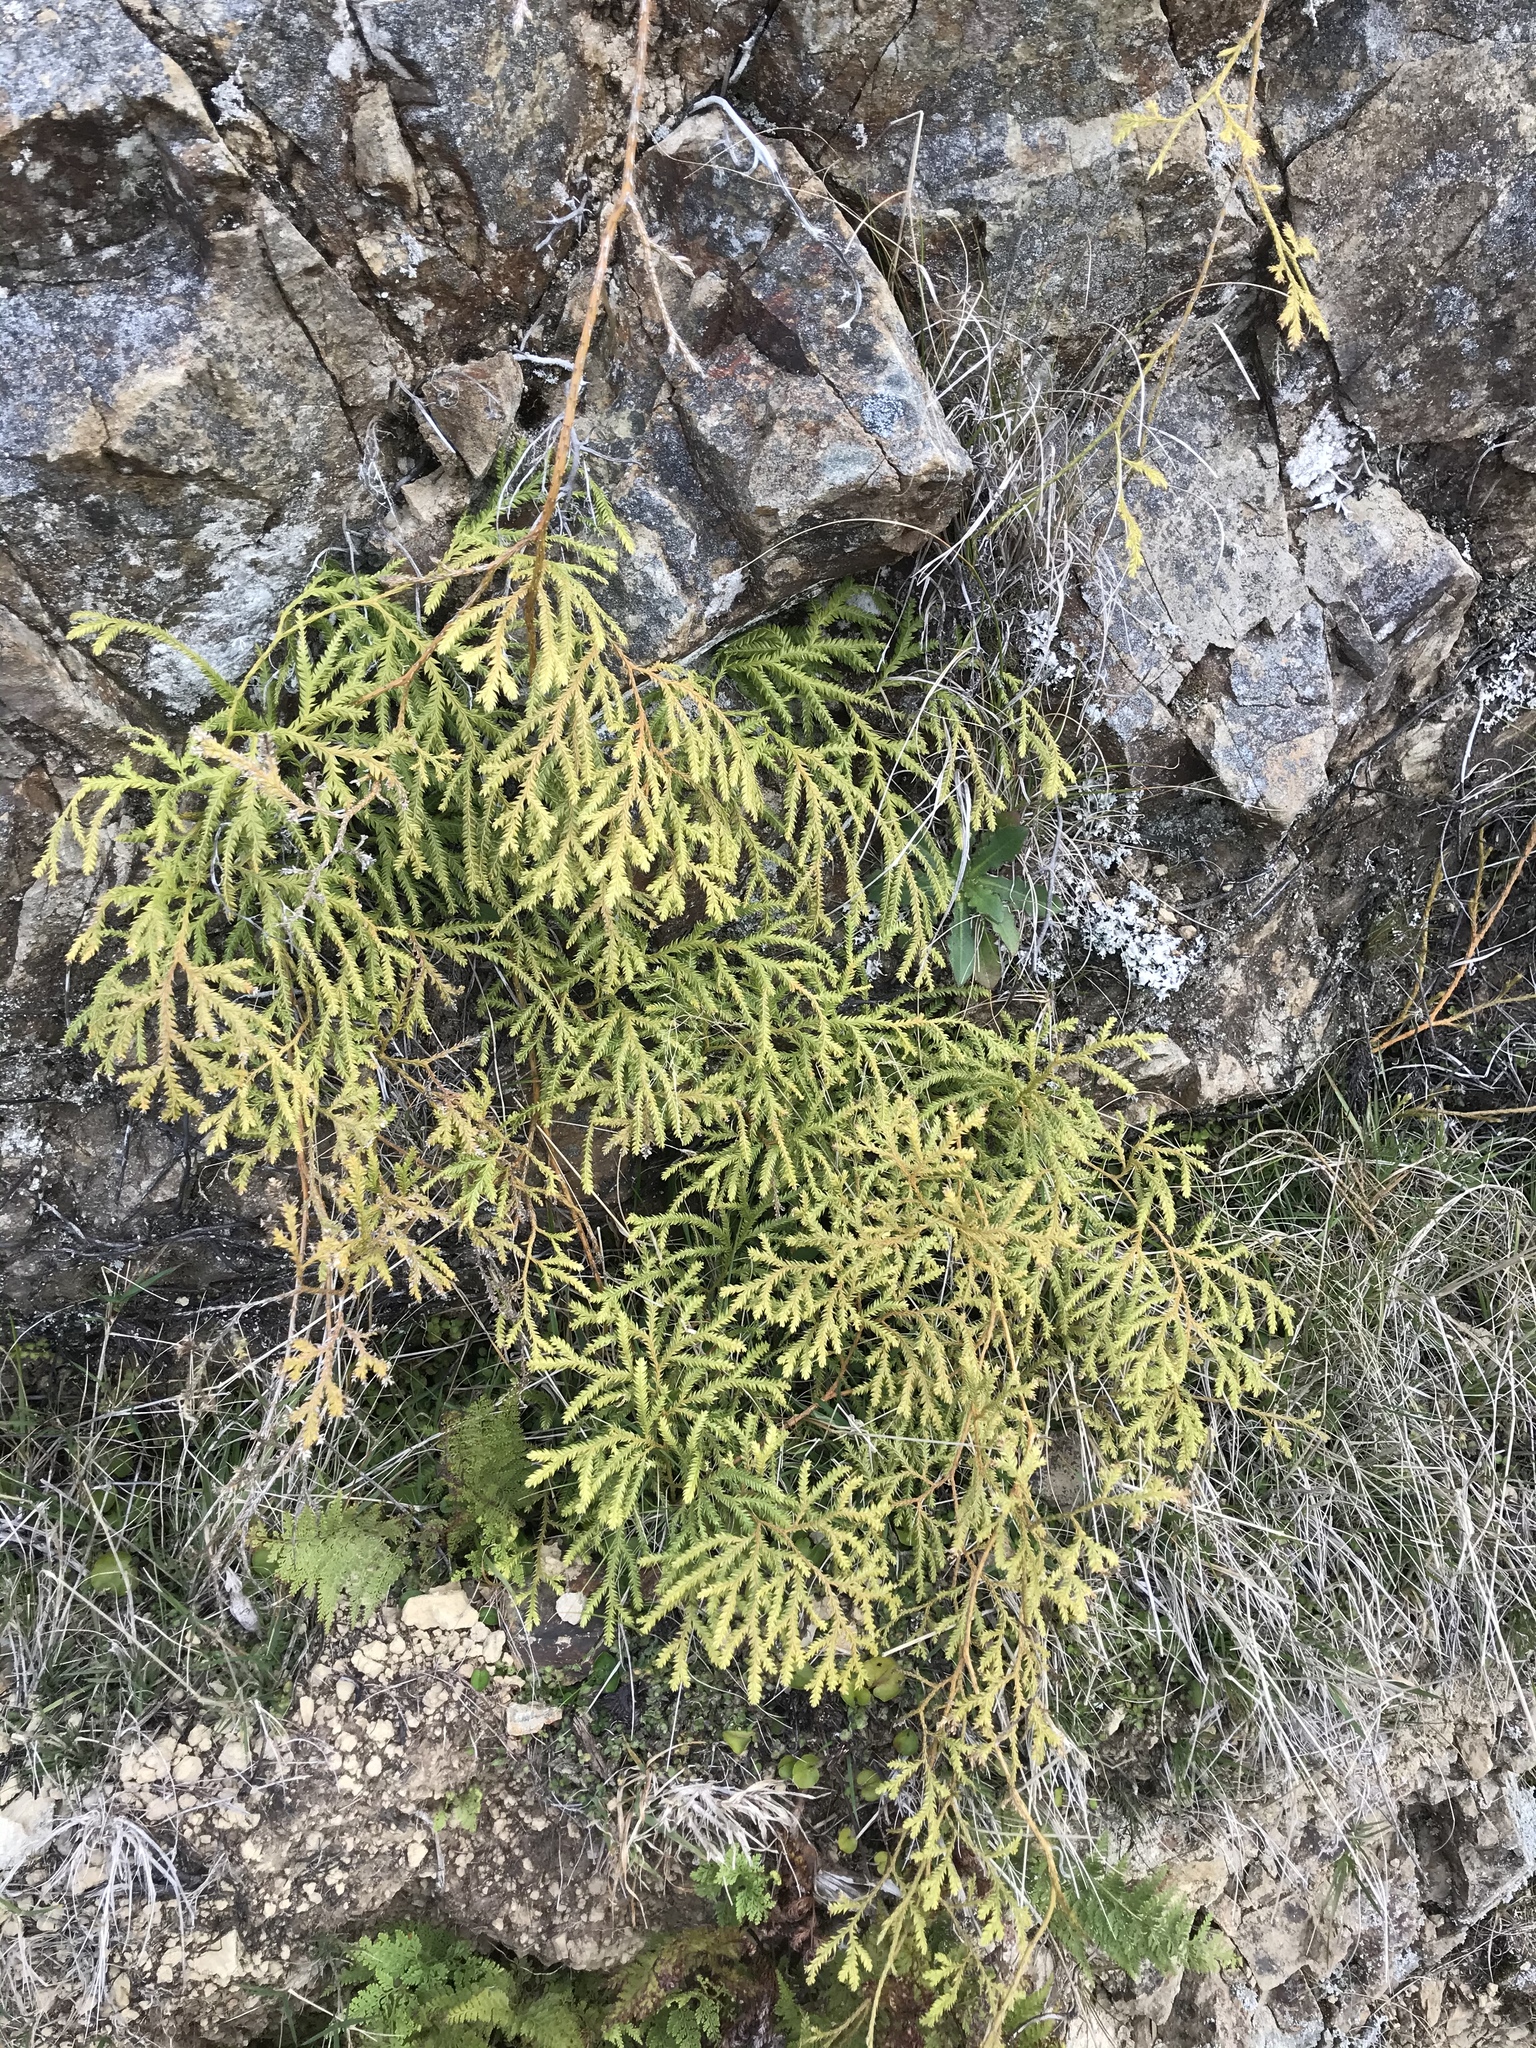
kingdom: Plantae
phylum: Tracheophyta
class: Lycopodiopsida
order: Lycopodiales
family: Lycopodiaceae
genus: Lycopodium
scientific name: Lycopodium volubile
